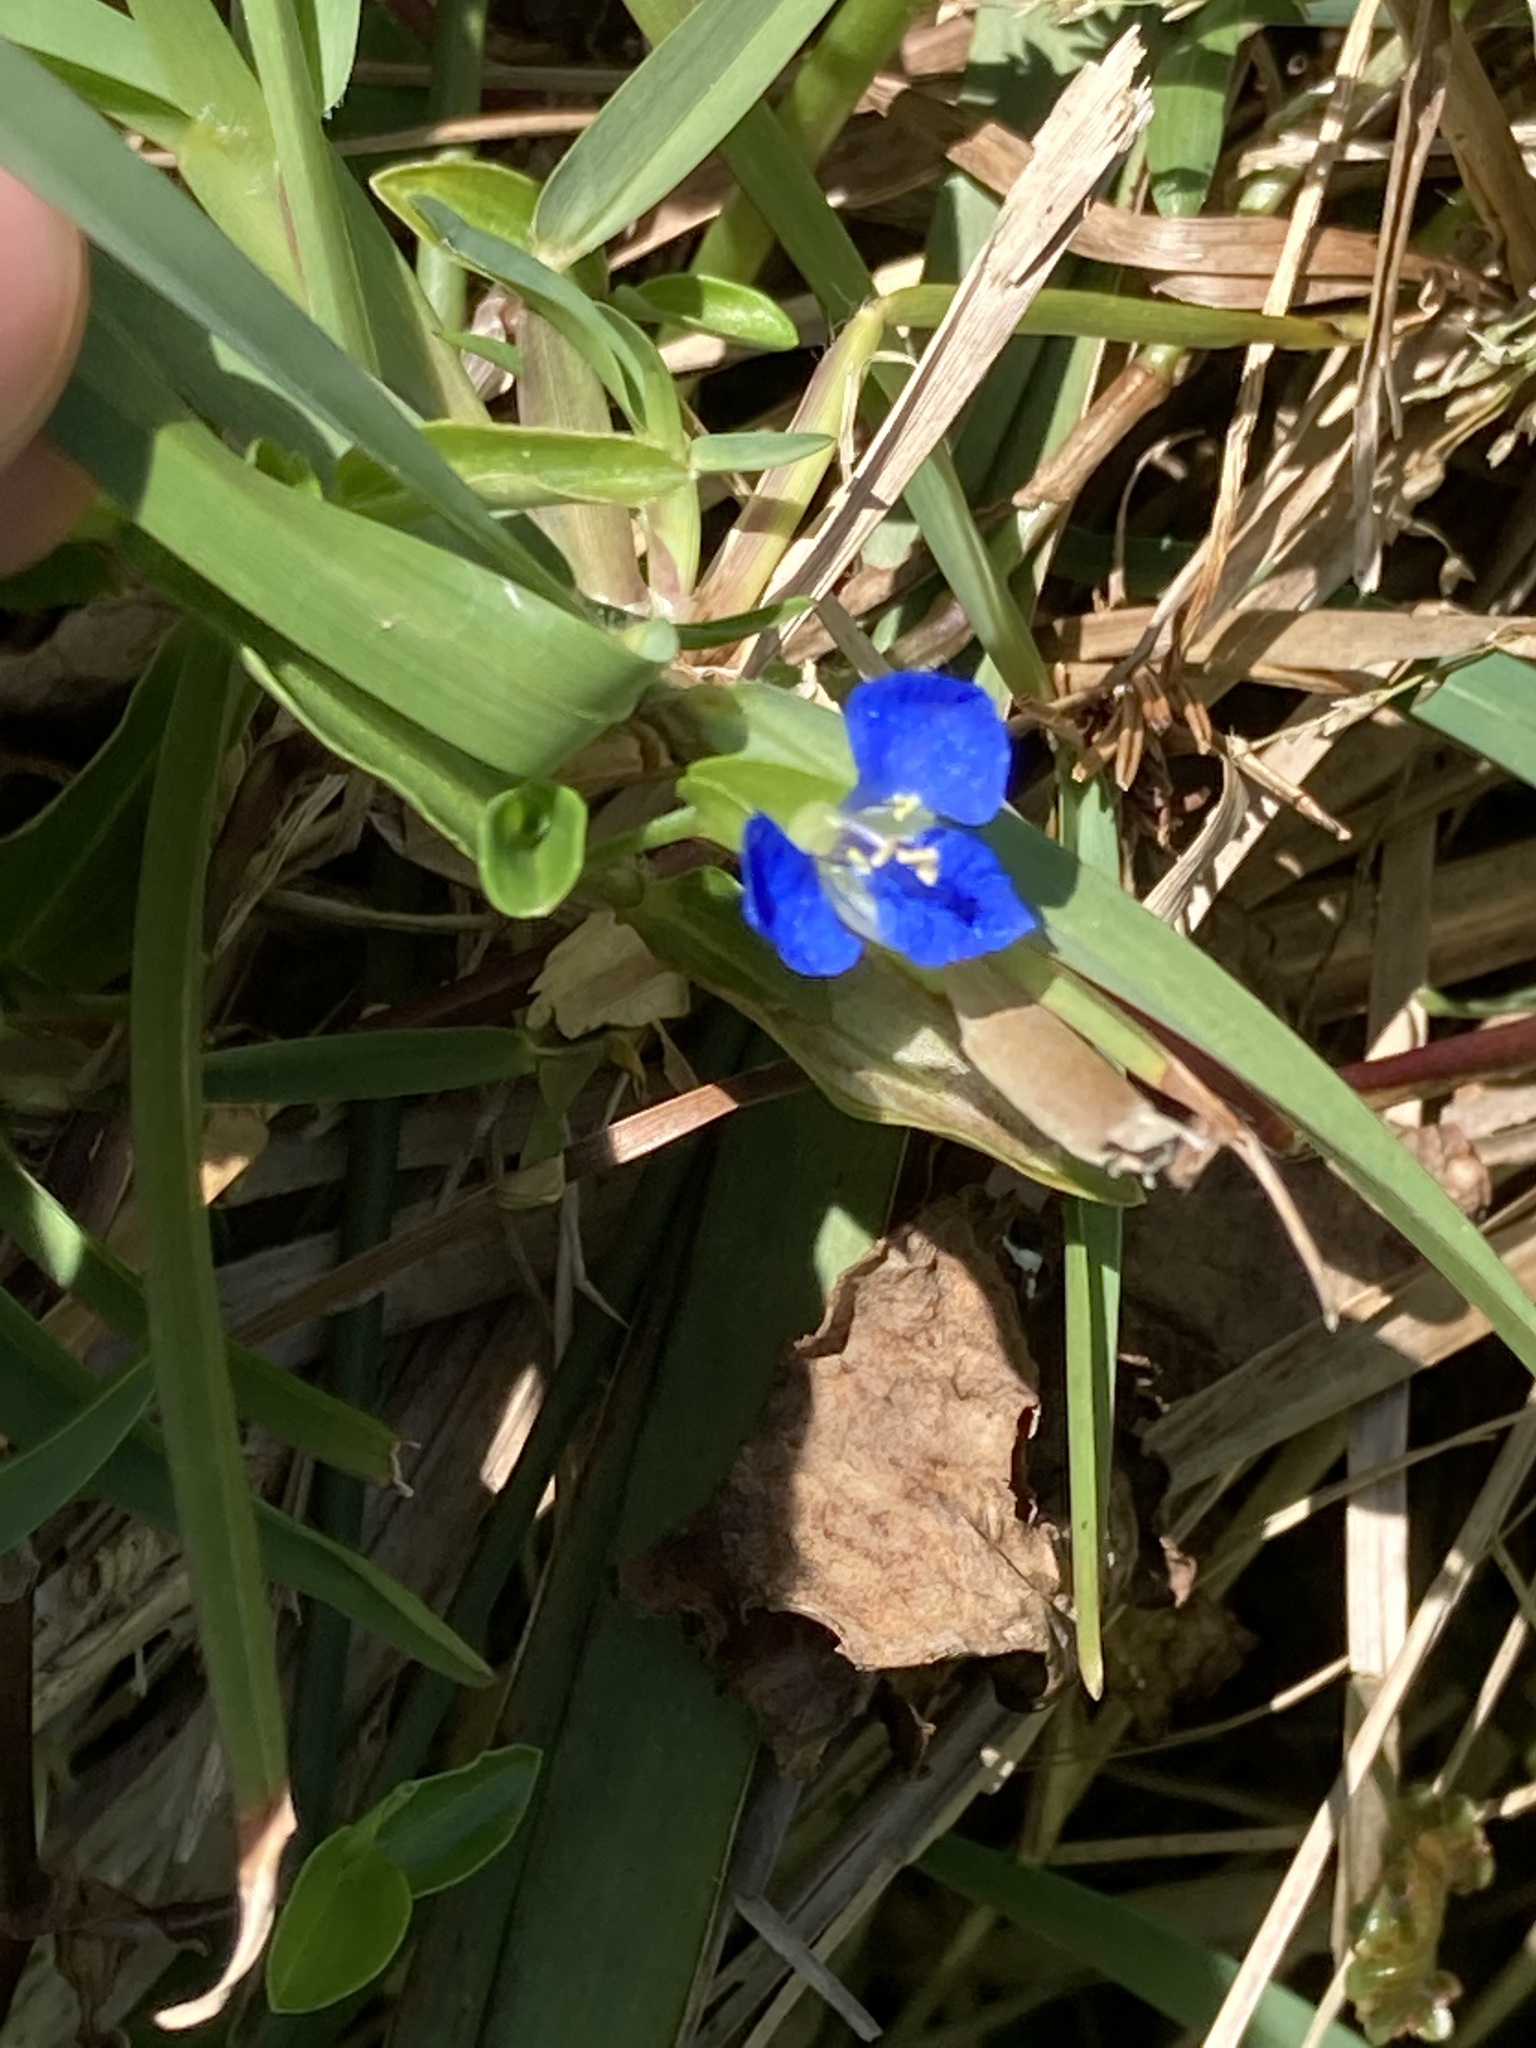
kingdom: Plantae
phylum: Tracheophyta
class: Liliopsida
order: Commelinales
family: Commelinaceae
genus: Commelina
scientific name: Commelina cyanea
